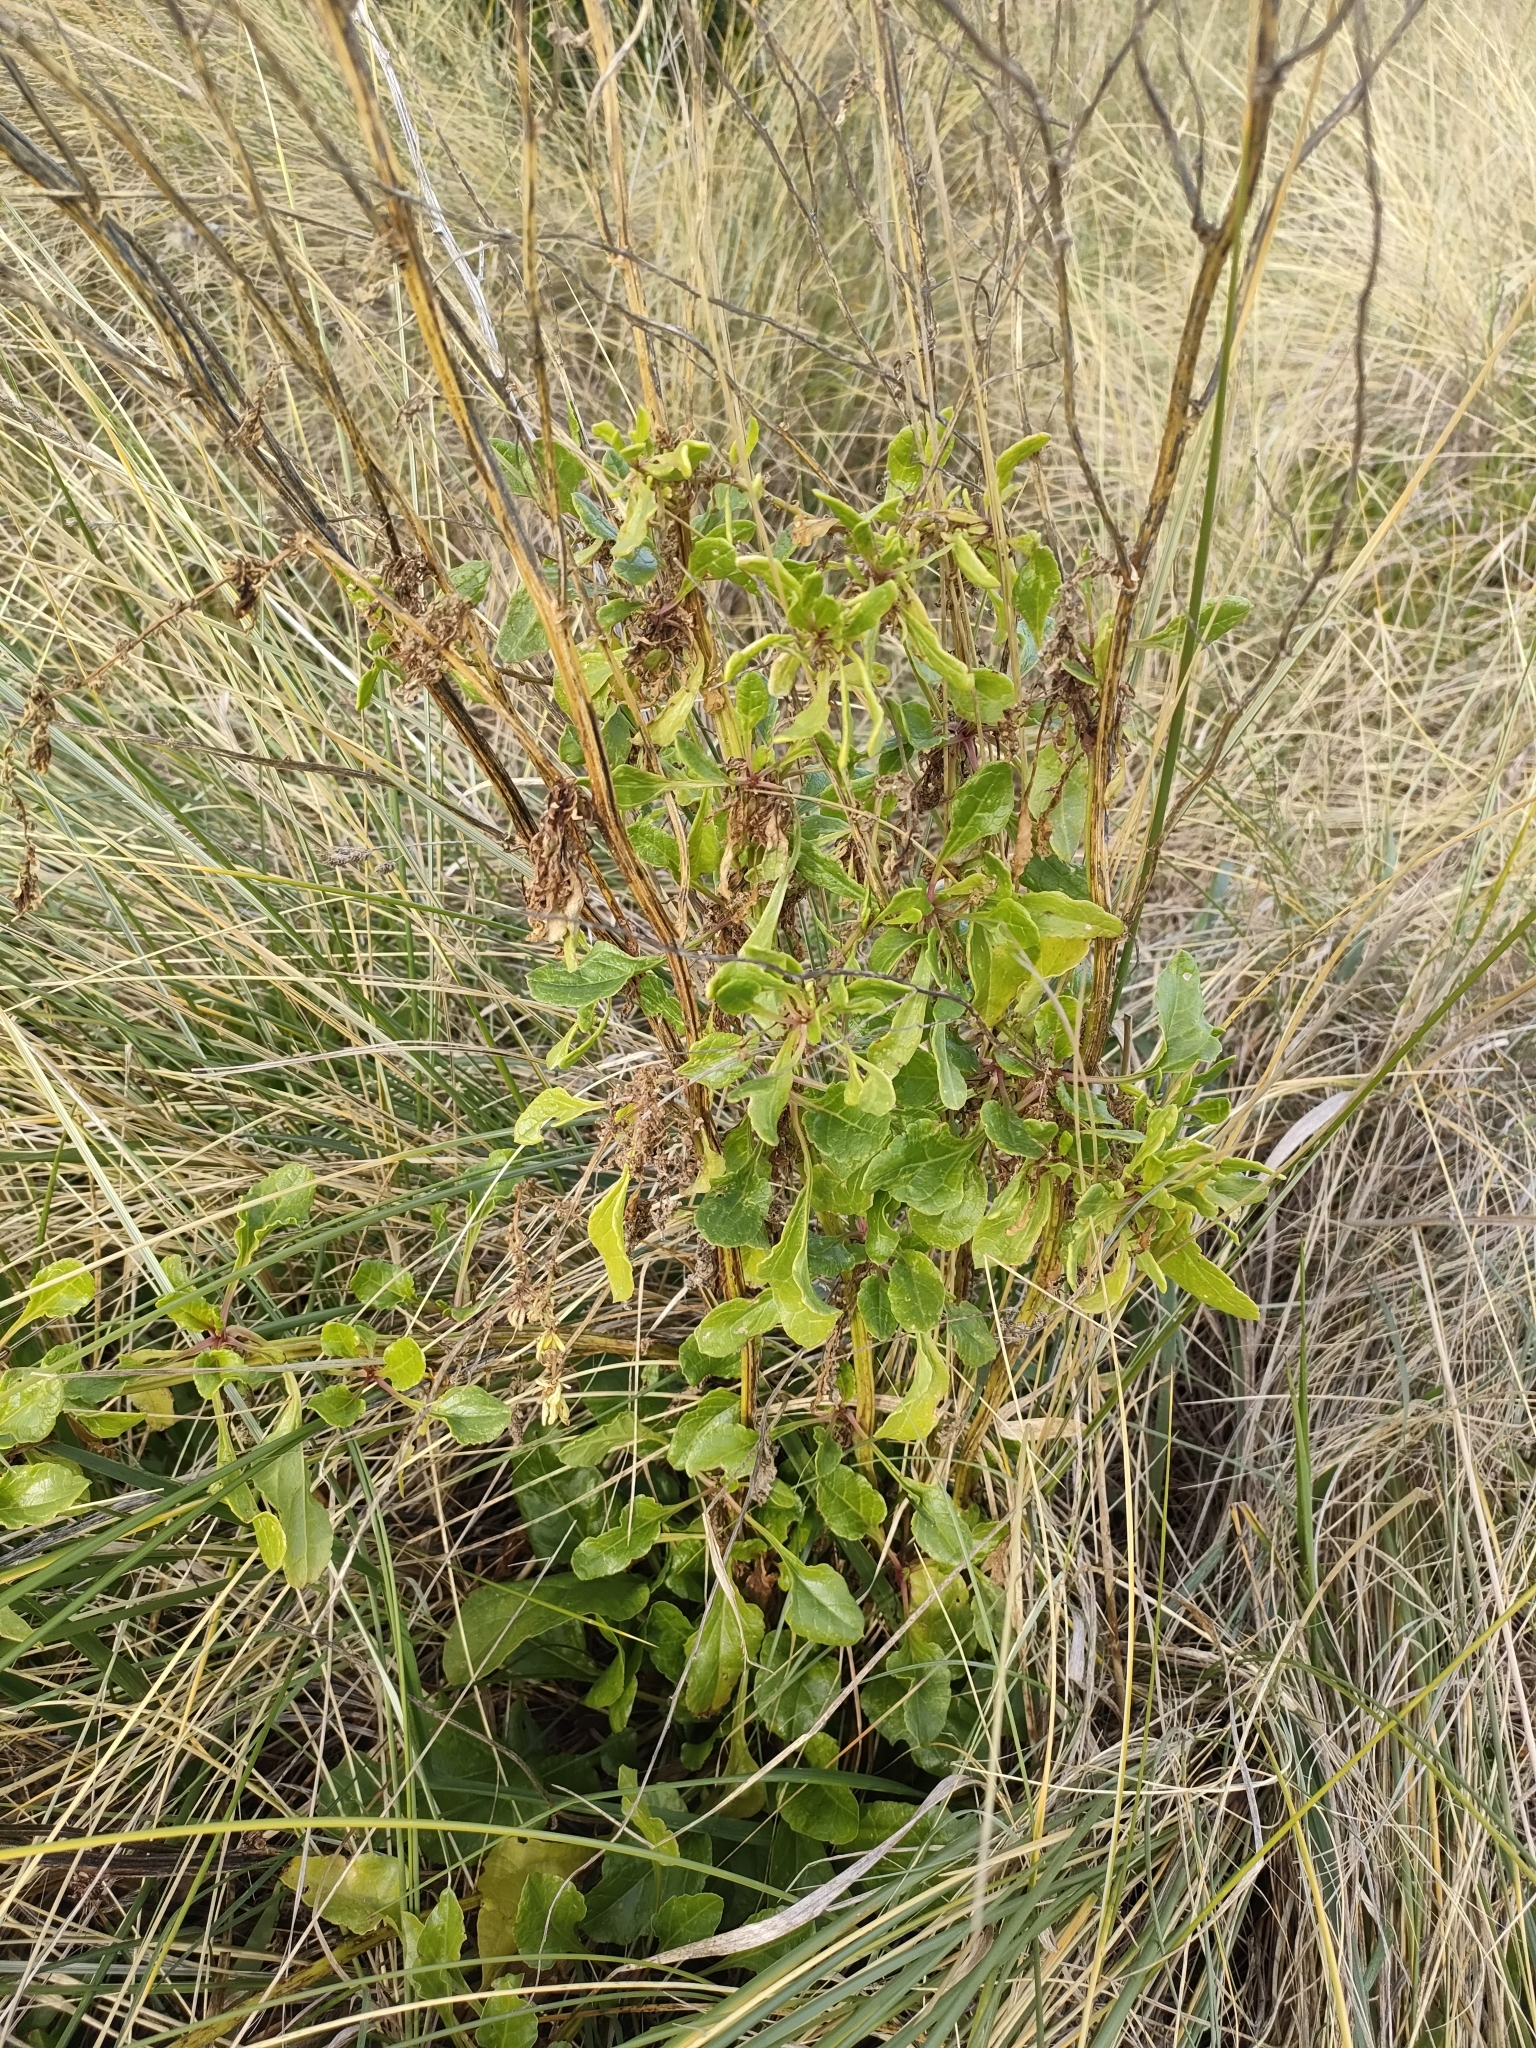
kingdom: Plantae
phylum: Tracheophyta
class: Magnoliopsida
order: Caryophyllales
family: Amaranthaceae
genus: Beta
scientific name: Beta vulgaris
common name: Beet
